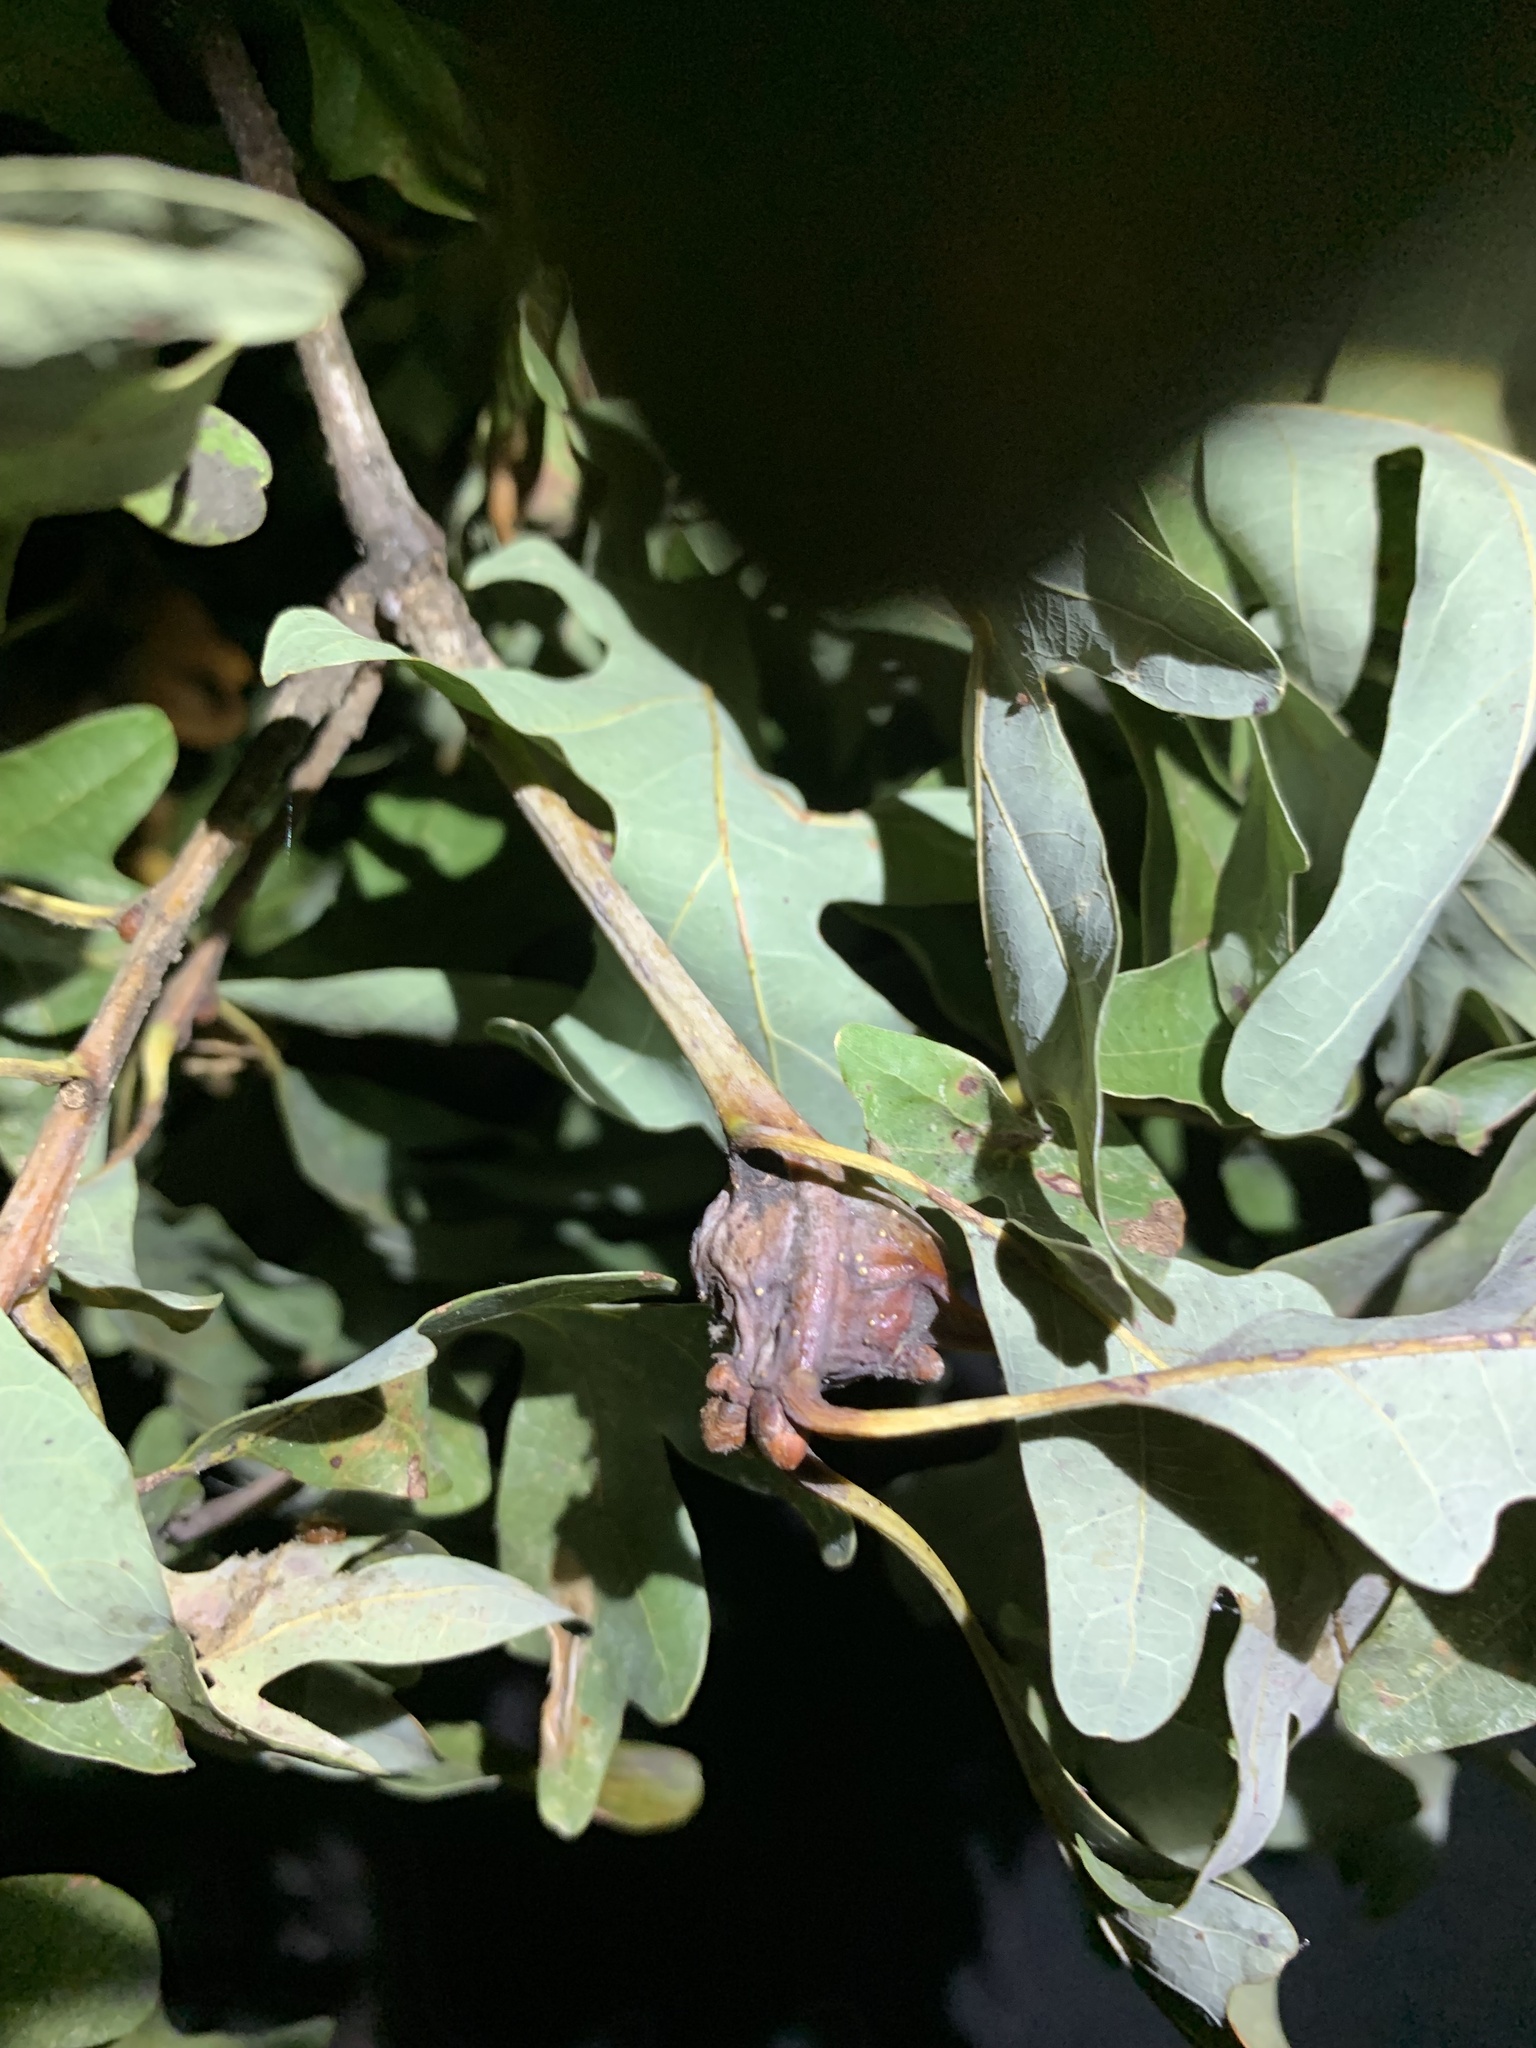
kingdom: Animalia
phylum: Arthropoda
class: Insecta
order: Hymenoptera
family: Cynipidae
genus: Callirhytis
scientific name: Callirhytis clavula
